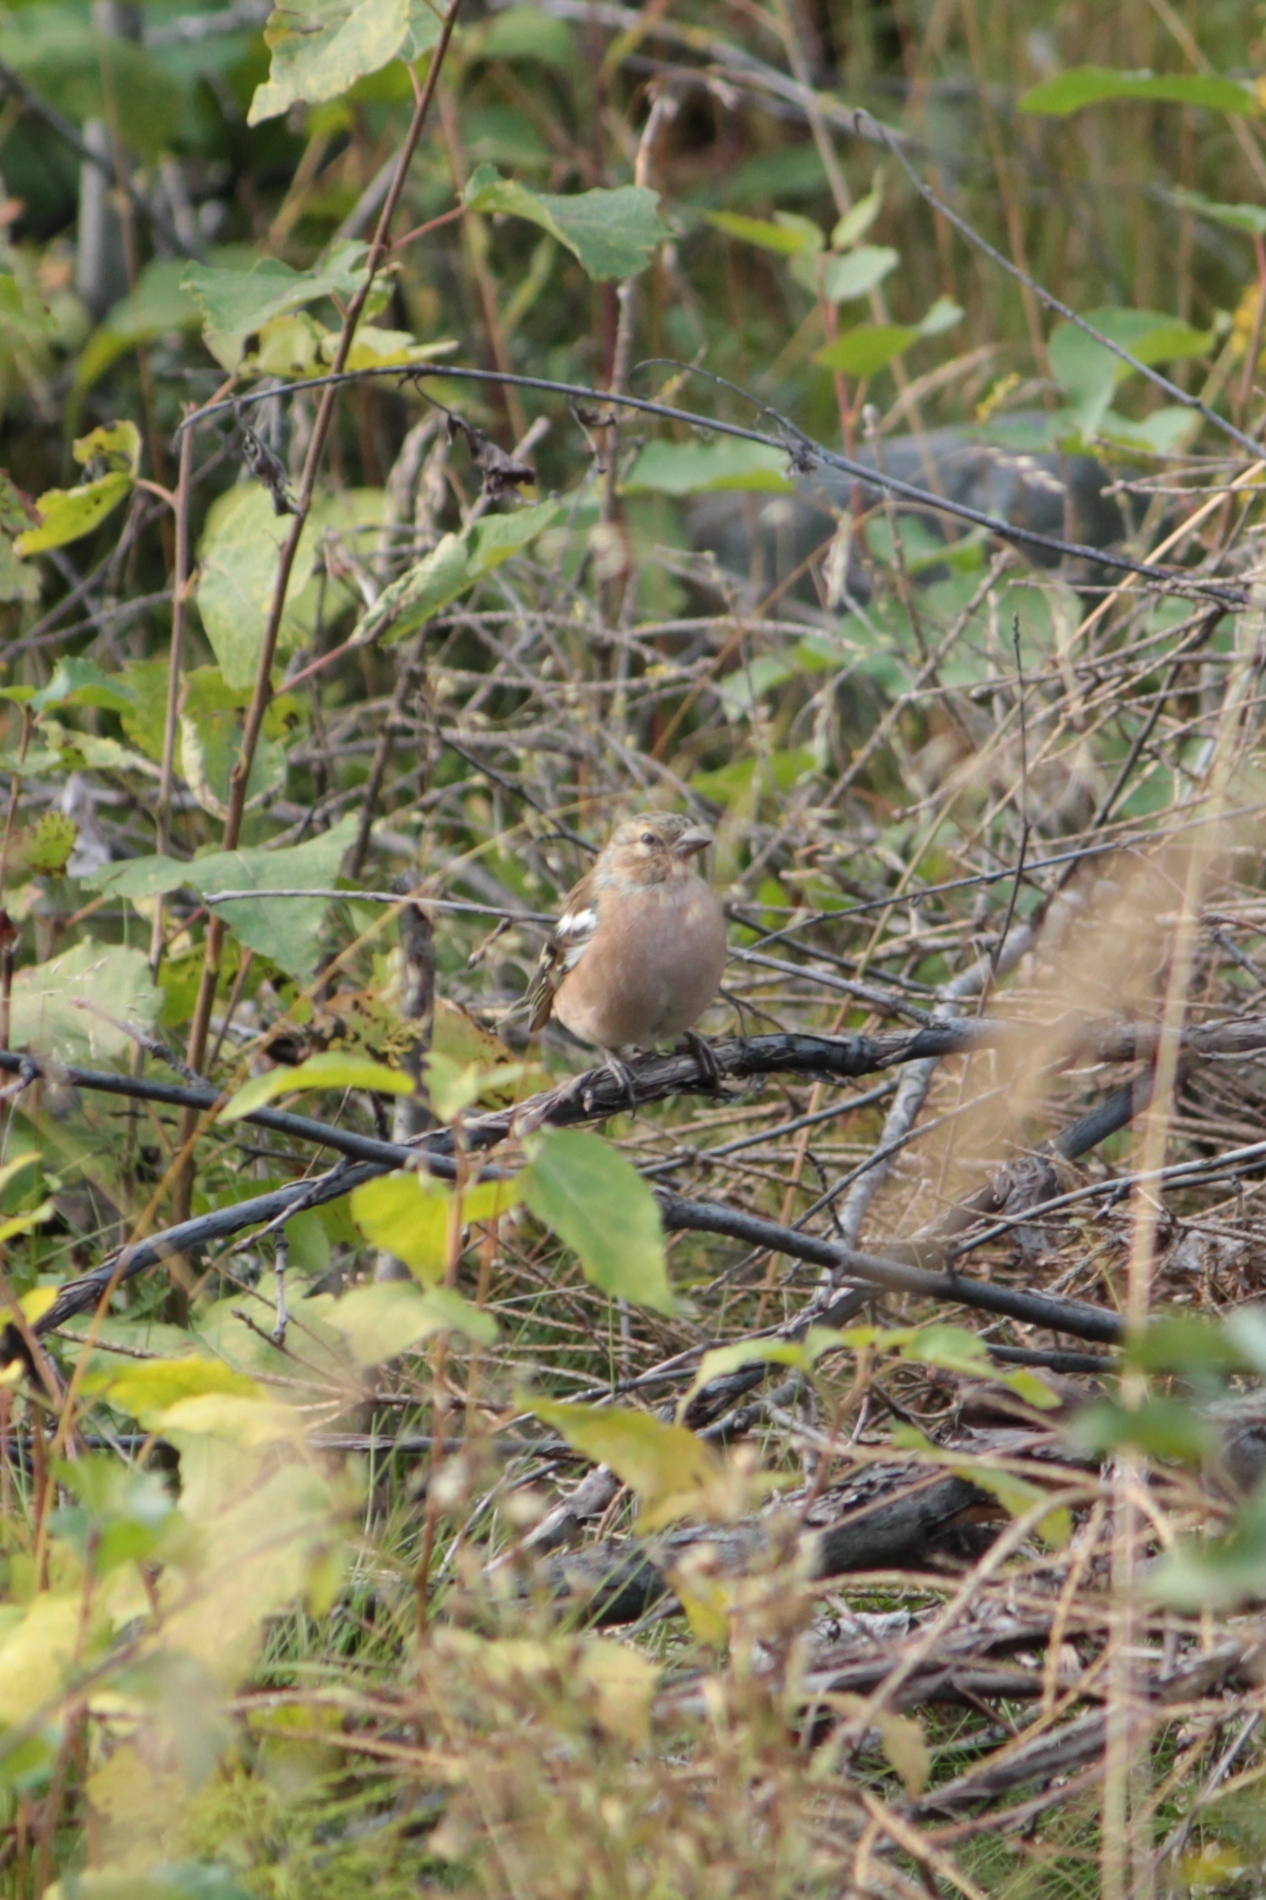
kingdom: Animalia
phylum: Chordata
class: Aves
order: Passeriformes
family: Fringillidae
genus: Fringilla
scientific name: Fringilla coelebs
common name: Common chaffinch
